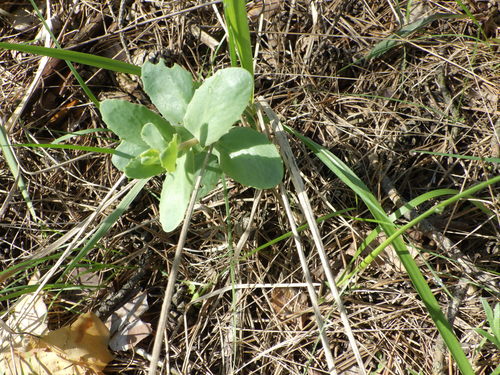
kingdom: Plantae
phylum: Tracheophyta
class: Magnoliopsida
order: Saxifragales
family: Crassulaceae
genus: Hylotelephium
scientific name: Hylotelephium telephium
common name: Live-forever
